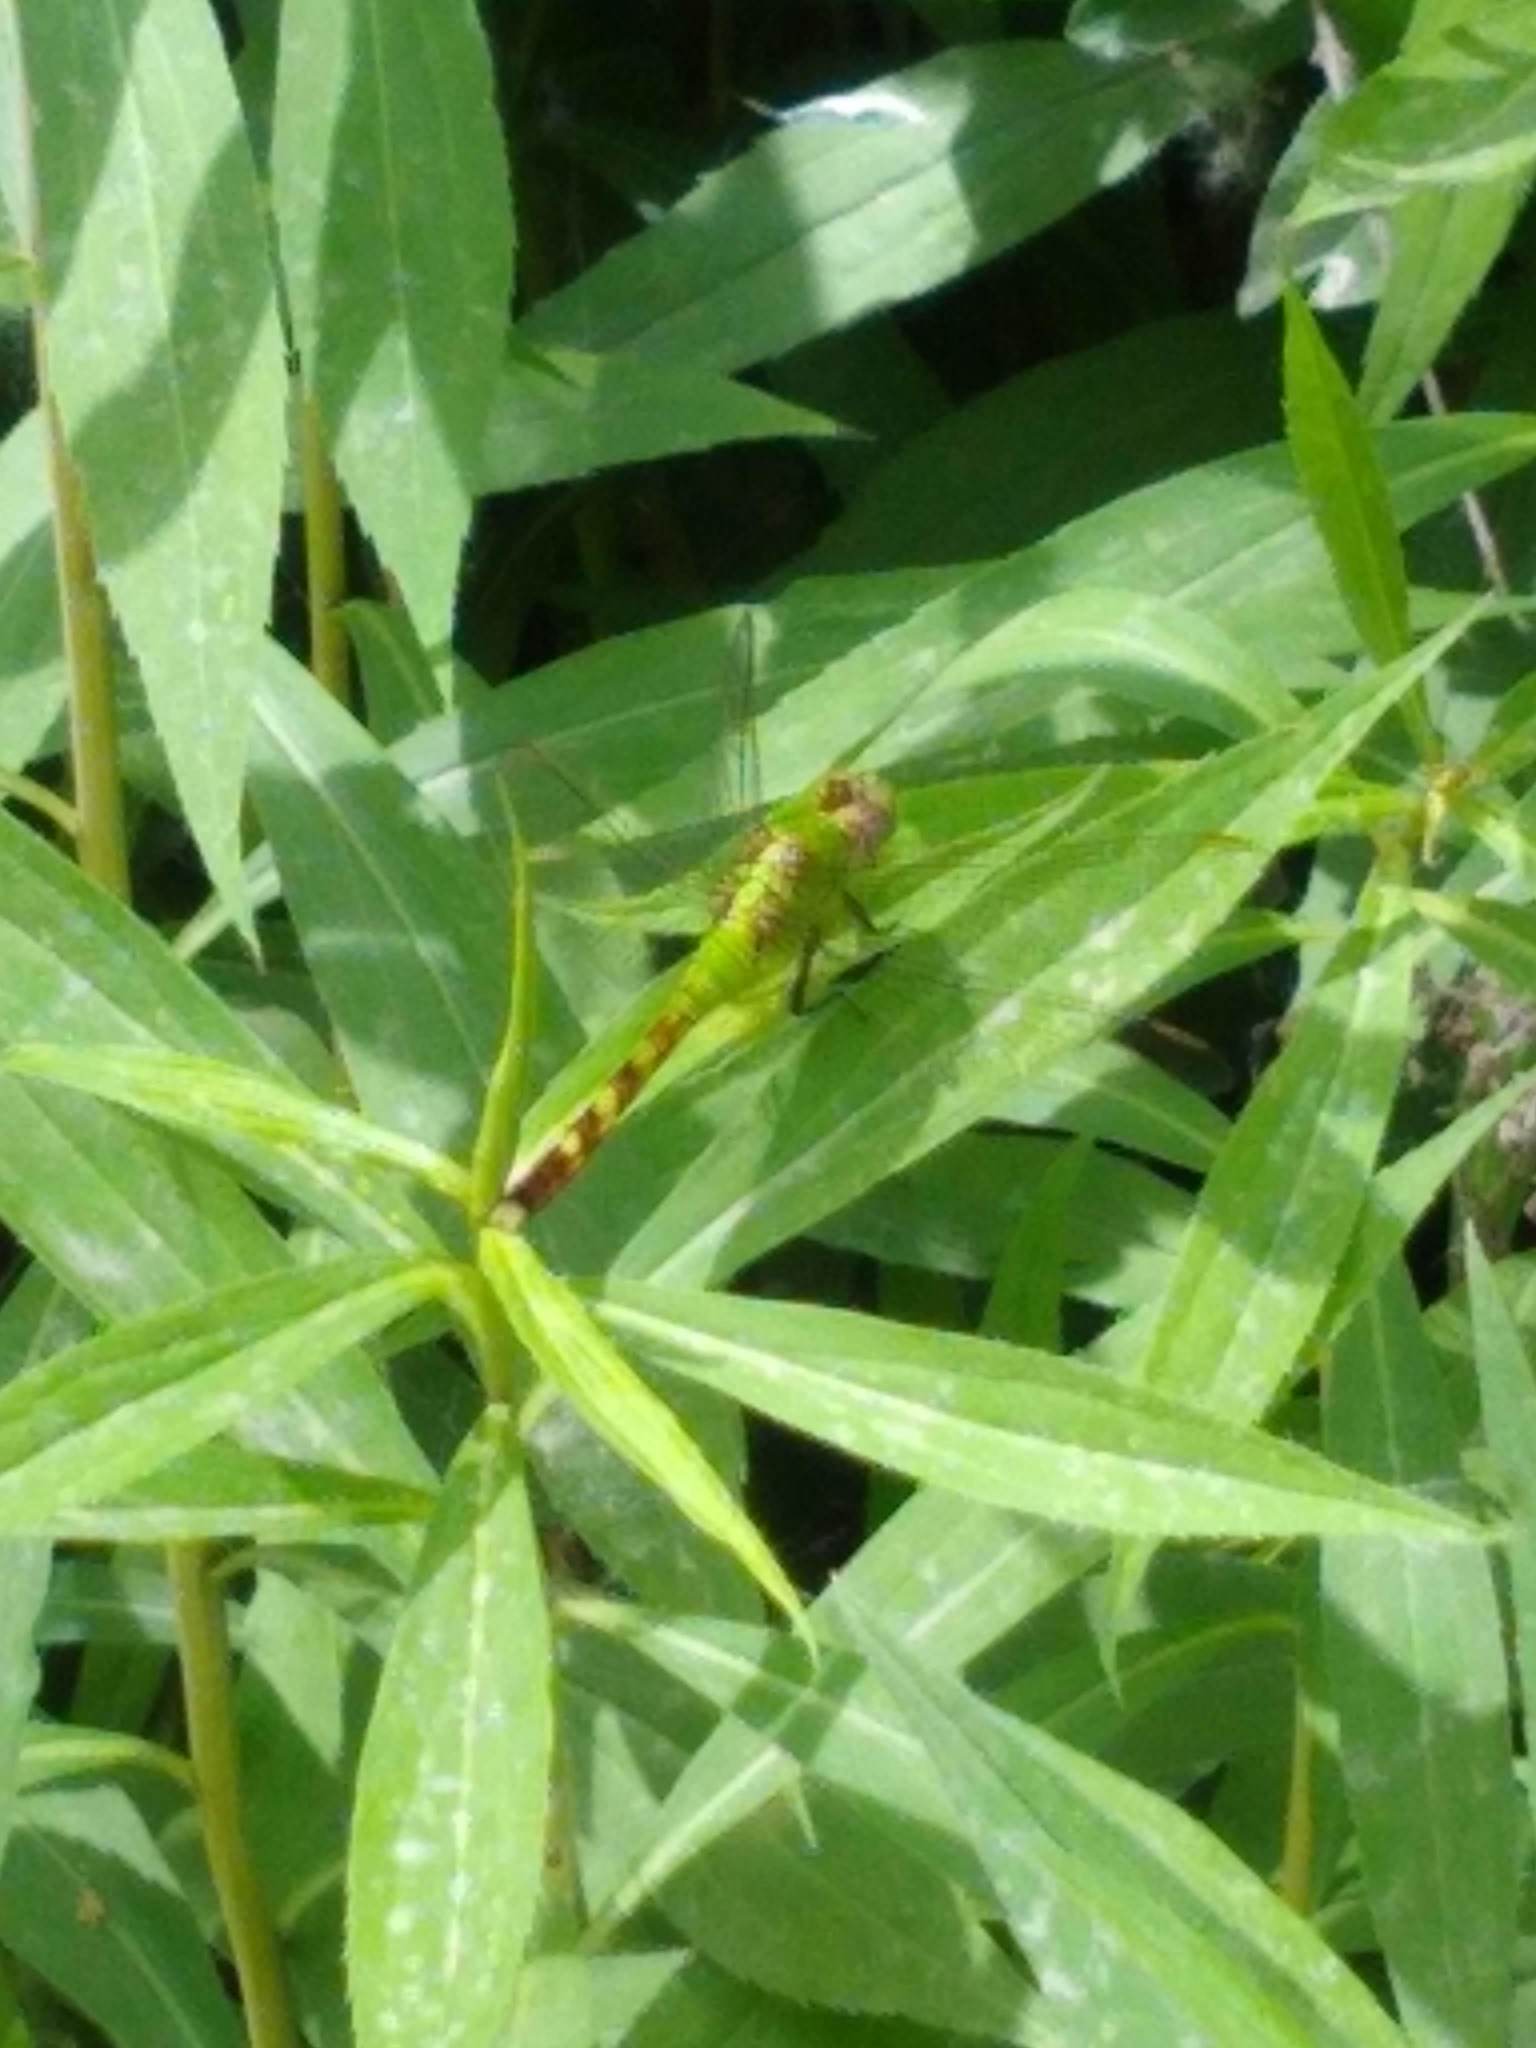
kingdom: Animalia
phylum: Arthropoda
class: Insecta
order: Odonata
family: Libellulidae
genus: Erythemis
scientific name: Erythemis simplicicollis
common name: Eastern pondhawk
